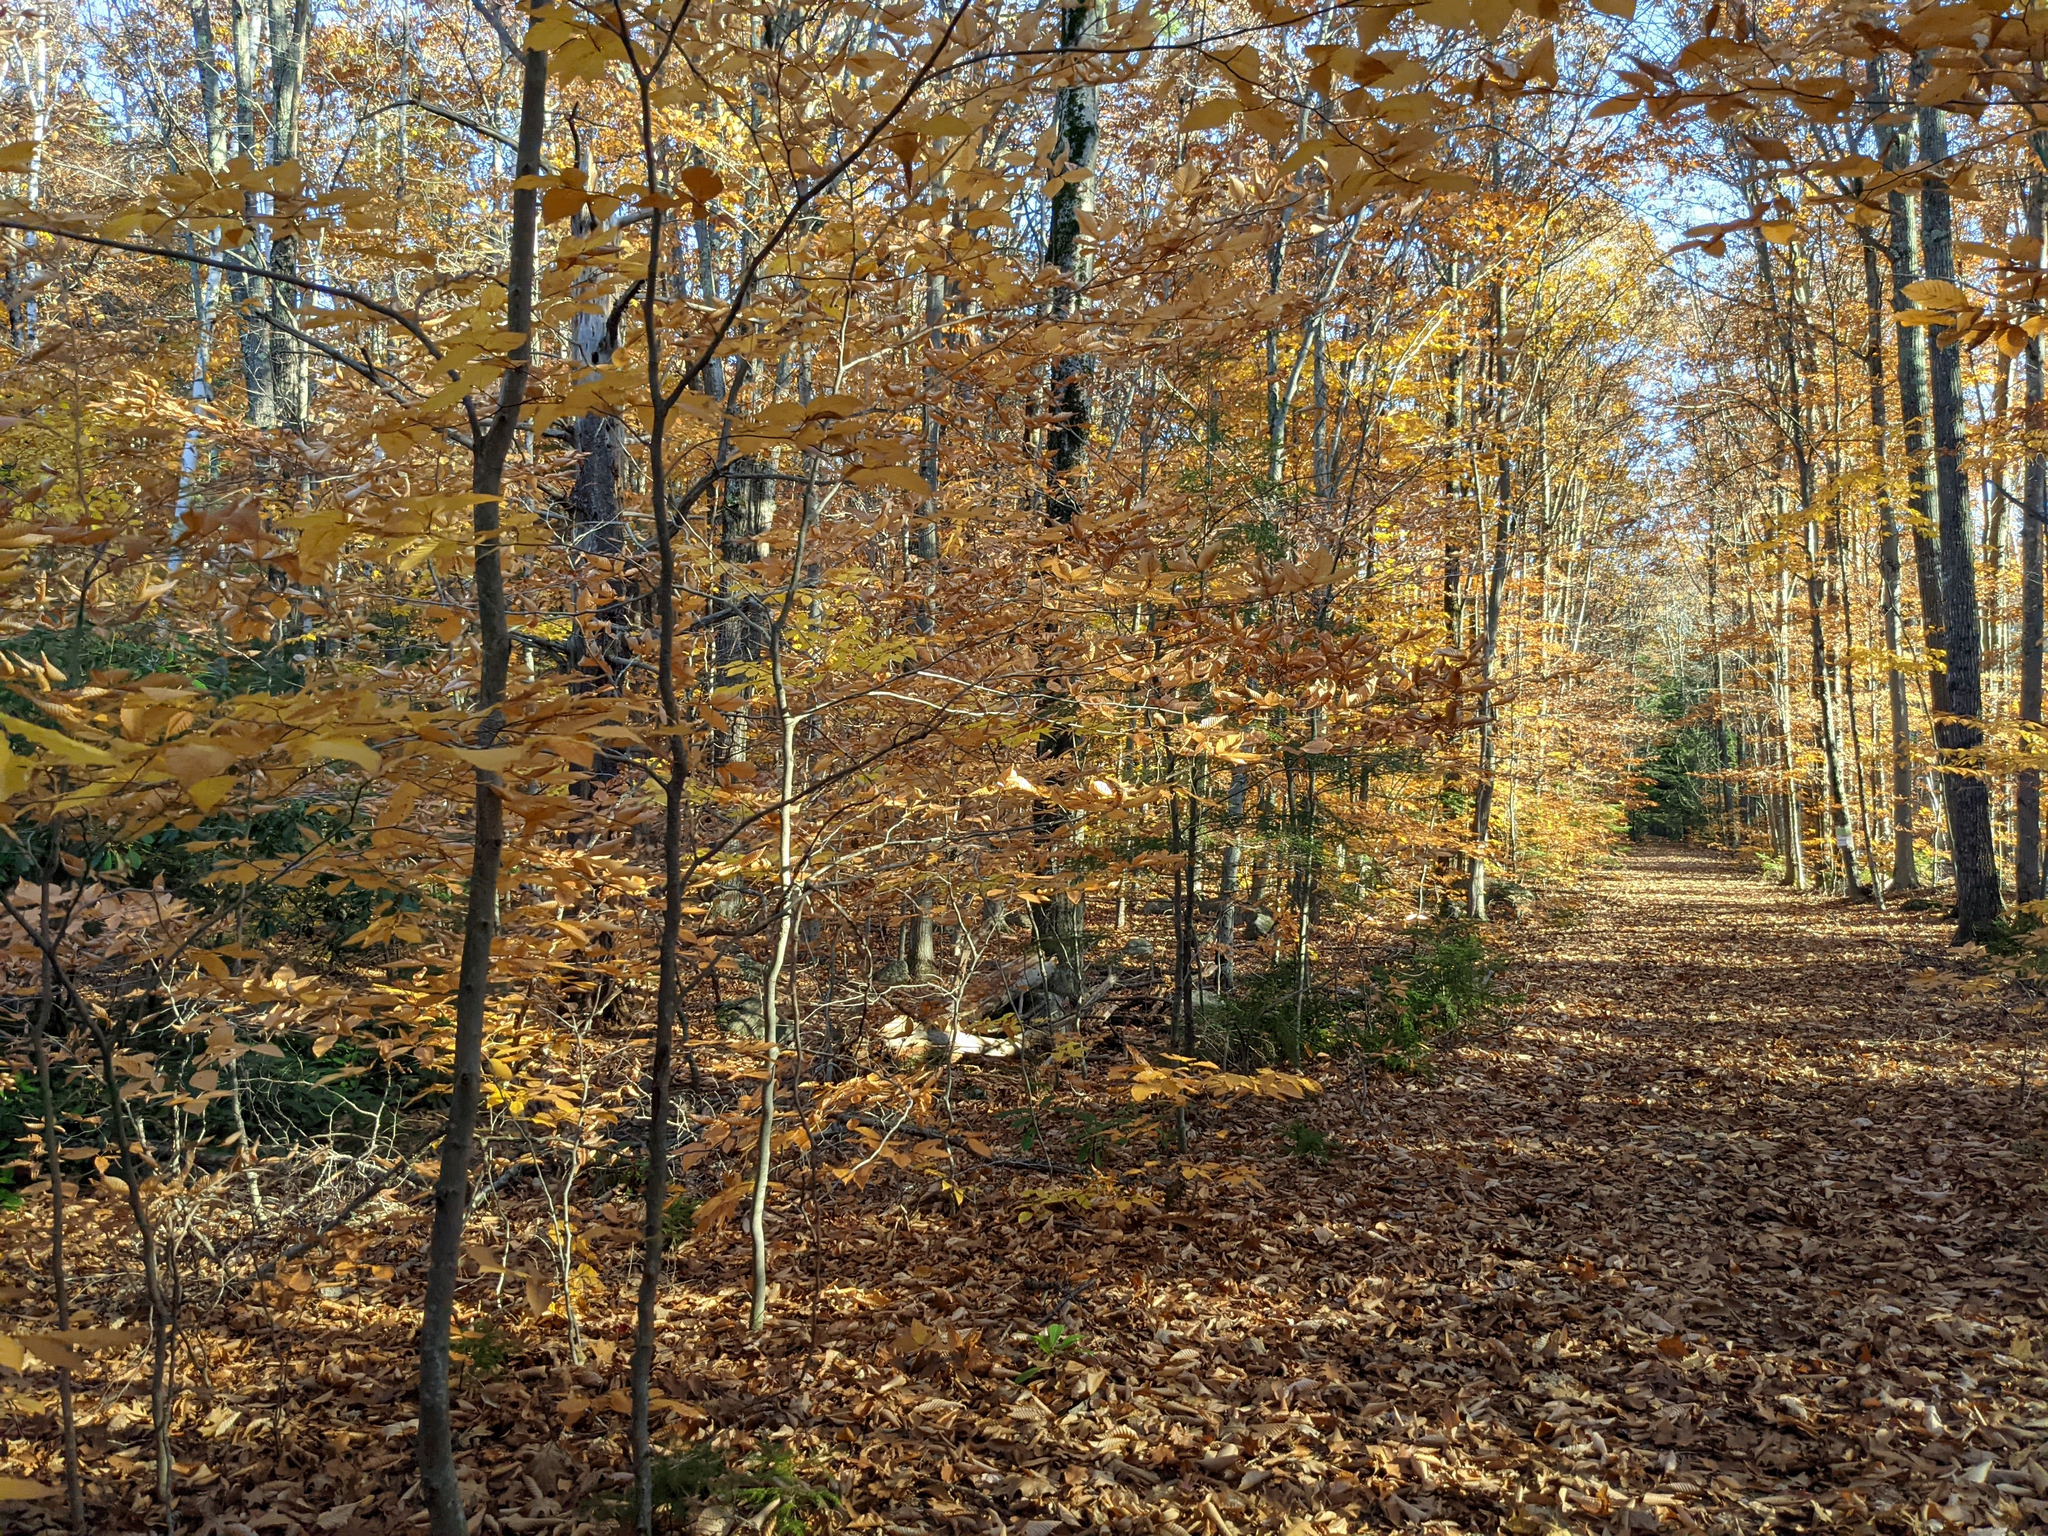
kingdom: Plantae
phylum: Tracheophyta
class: Magnoliopsida
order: Fagales
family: Fagaceae
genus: Fagus
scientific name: Fagus grandifolia
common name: American beech
